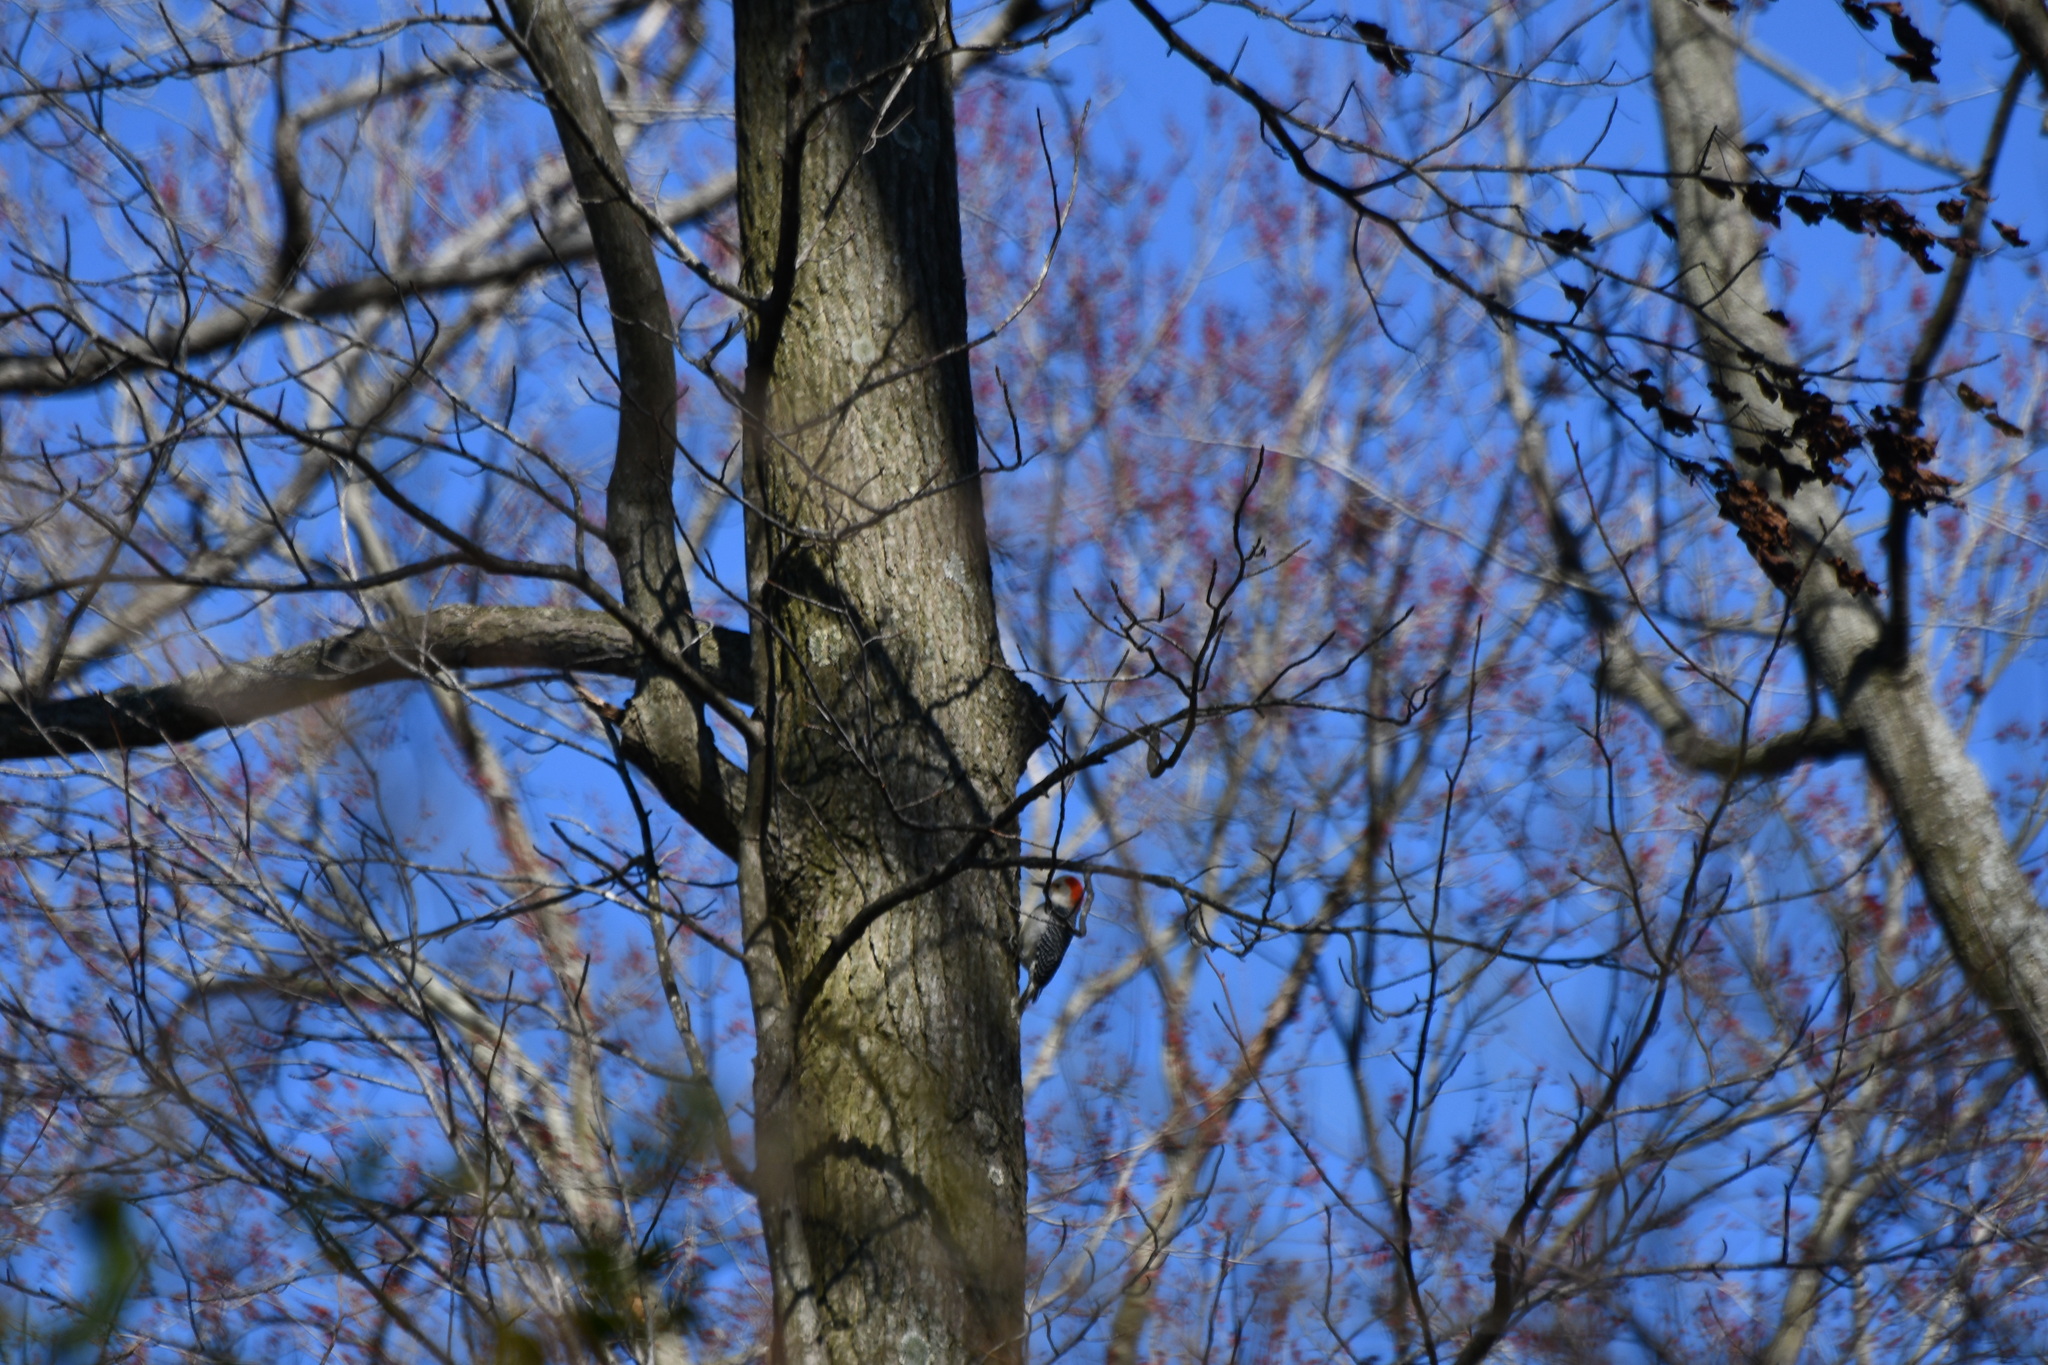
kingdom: Animalia
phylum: Chordata
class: Aves
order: Piciformes
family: Picidae
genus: Melanerpes
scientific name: Melanerpes carolinus
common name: Red-bellied woodpecker
